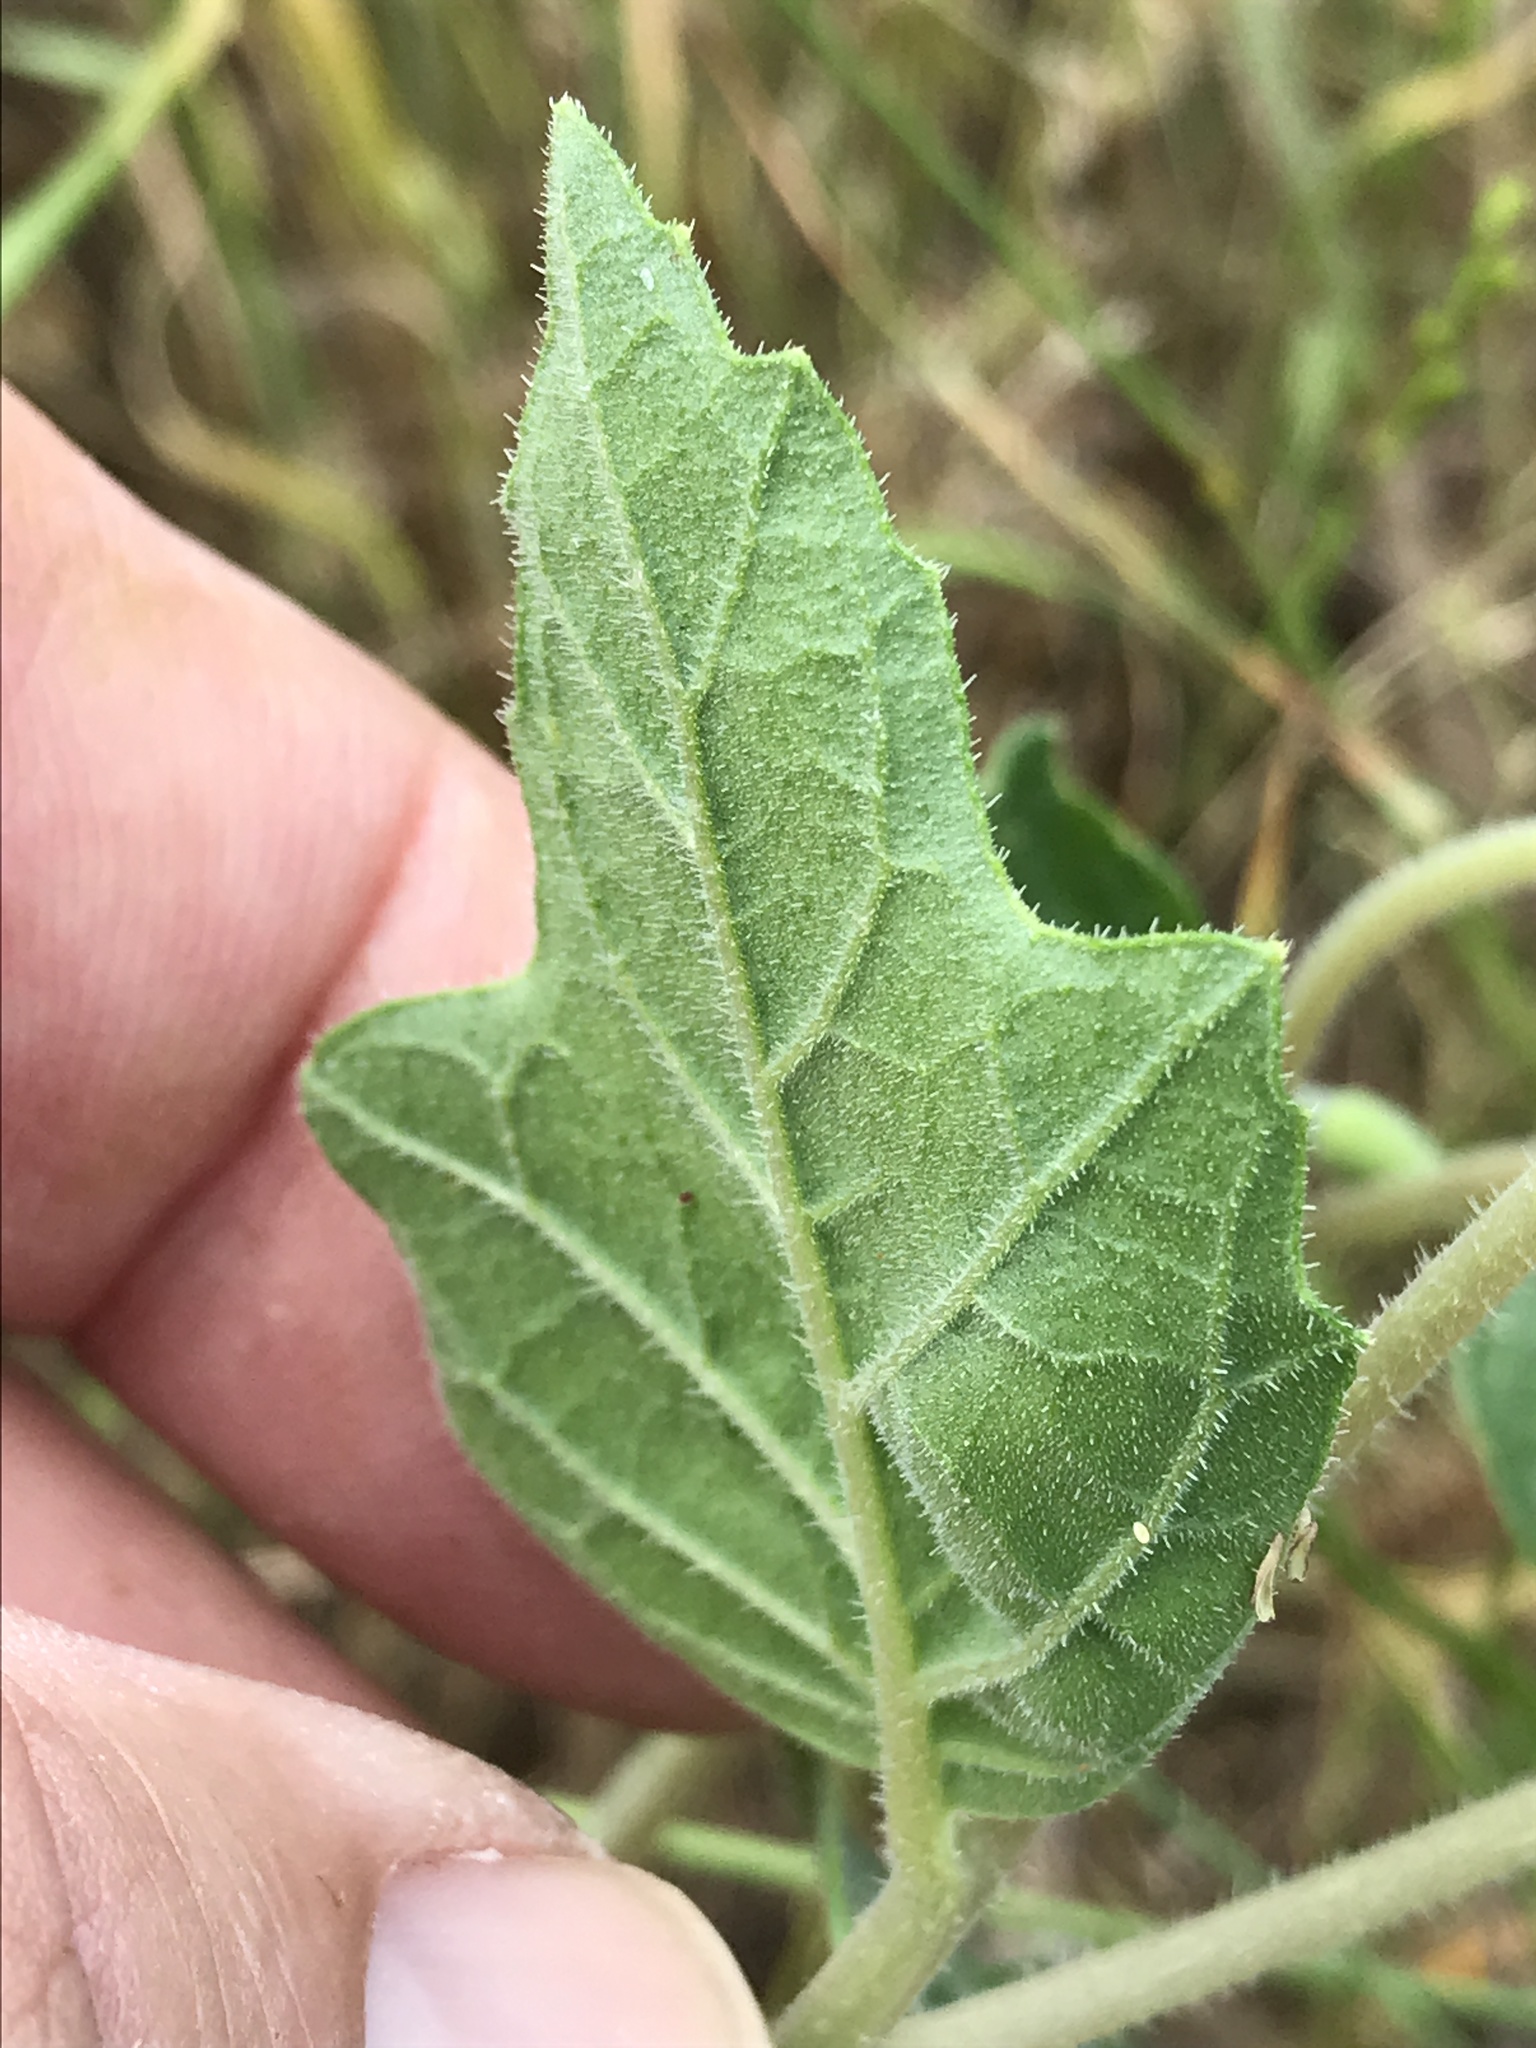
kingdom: Plantae
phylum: Tracheophyta
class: Magnoliopsida
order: Cornales
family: Loasaceae
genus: Mentzelia
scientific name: Mentzelia oligosperma
